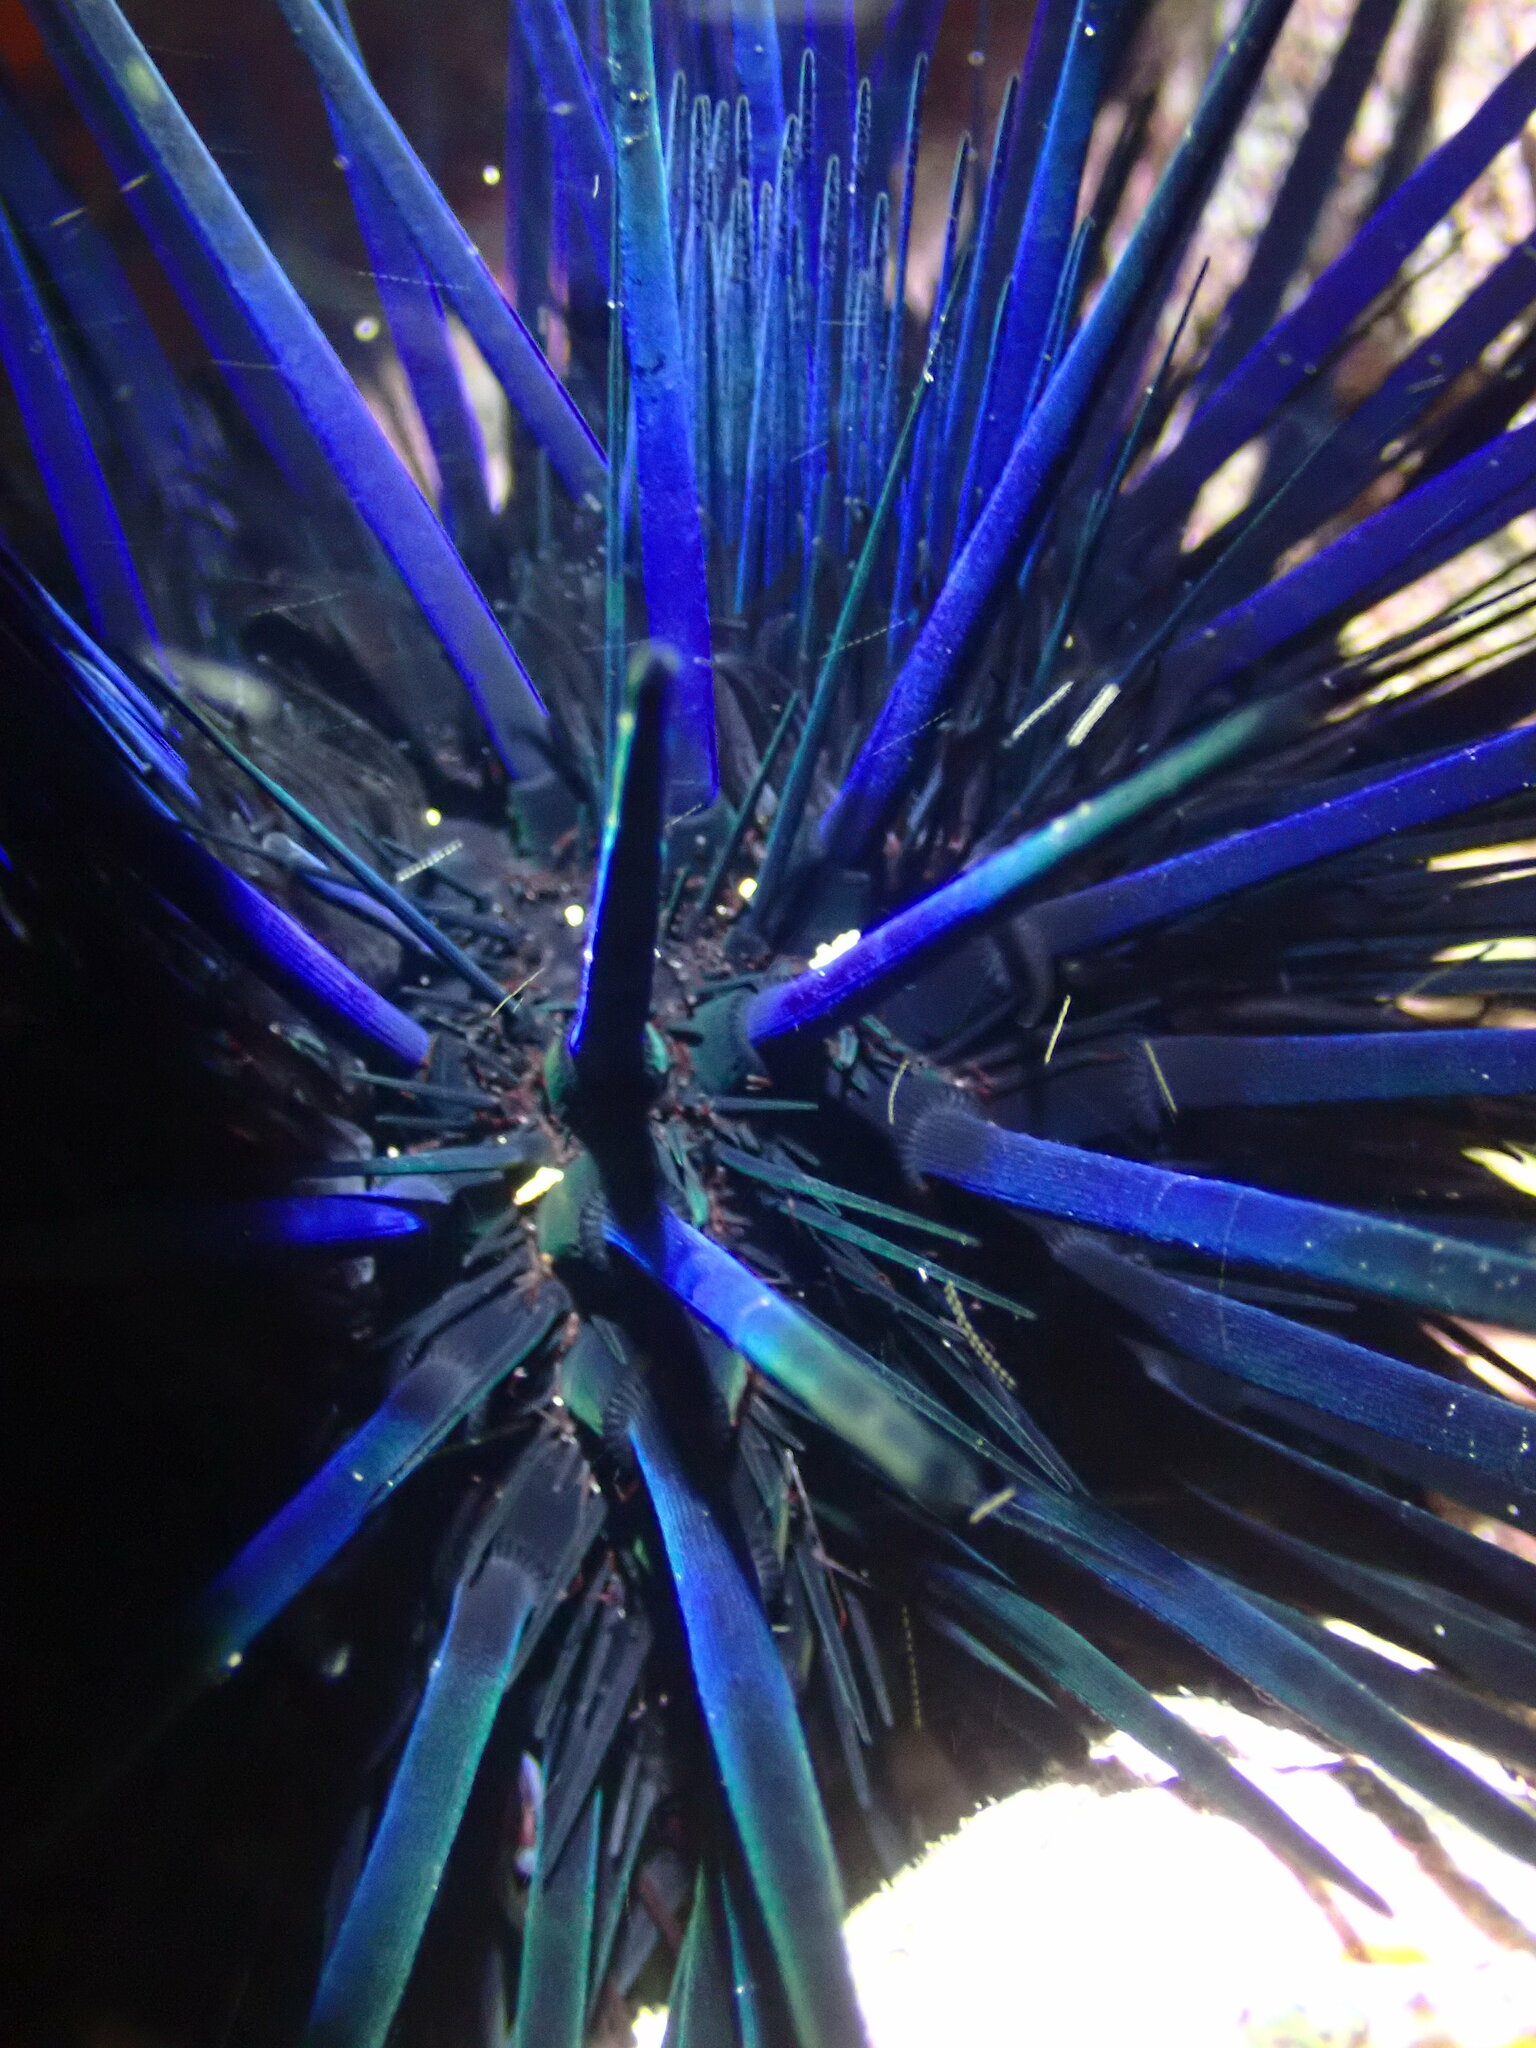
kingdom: Animalia
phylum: Echinodermata
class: Echinoidea
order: Diadematoida
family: Diadematidae
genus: Echinothrix
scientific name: Echinothrix diadema
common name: Schwarzer diademseeigel
